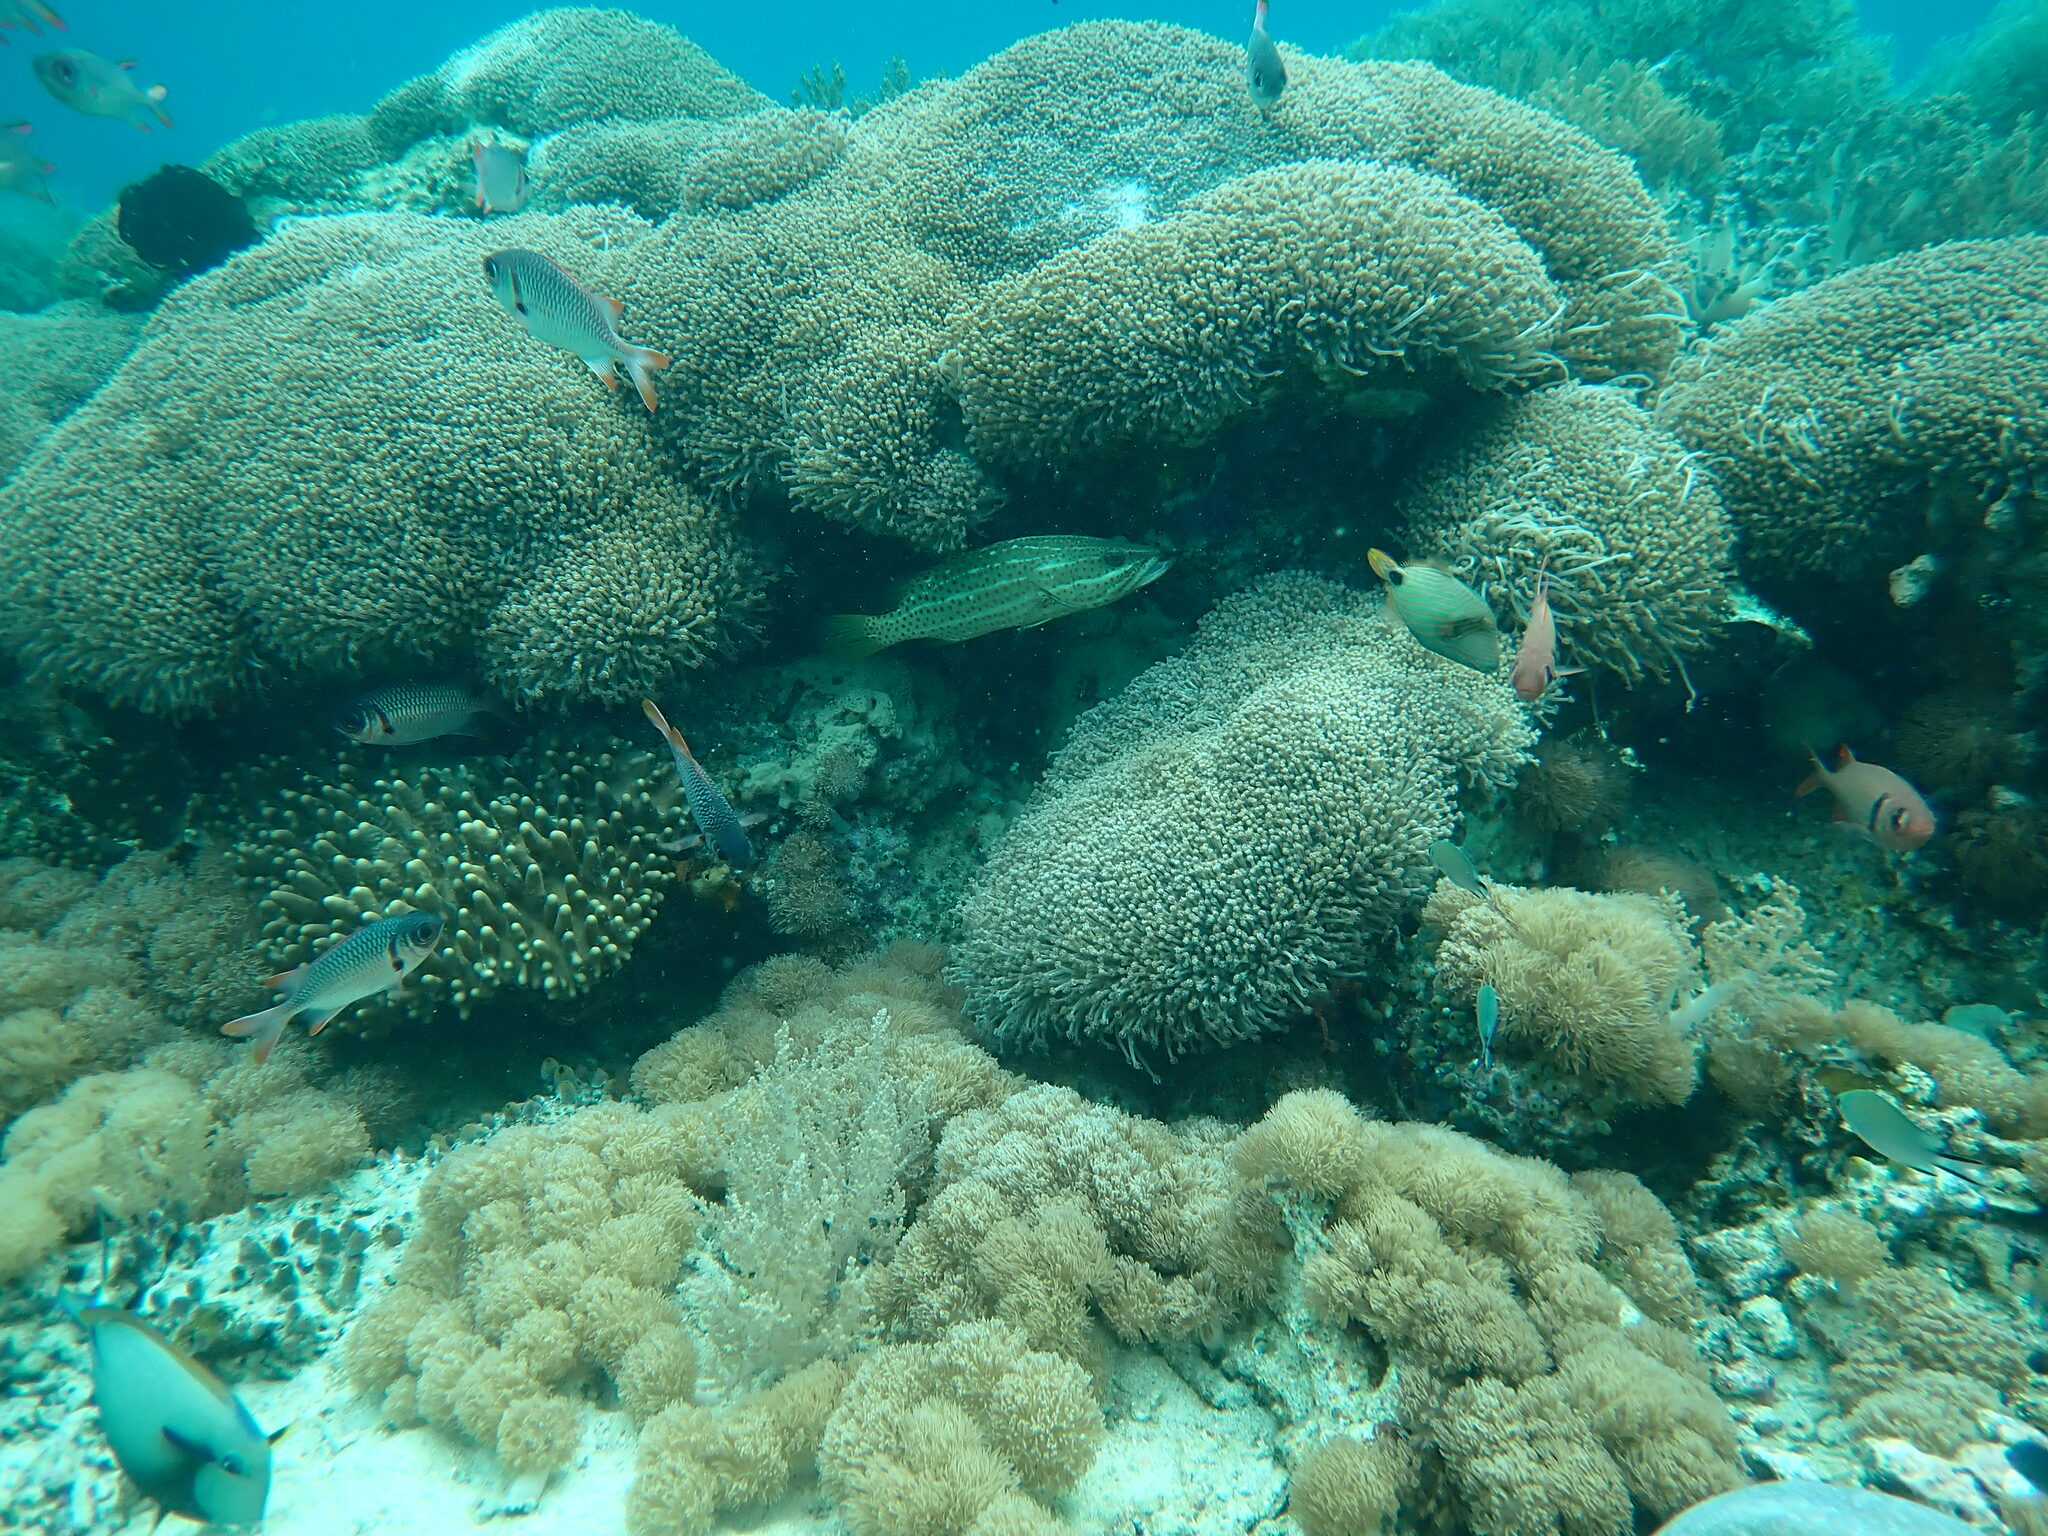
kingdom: Animalia
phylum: Chordata
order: Perciformes
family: Serranidae
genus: Anyperodon
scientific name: Anyperodon leucogrammicus
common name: Slender grouper
